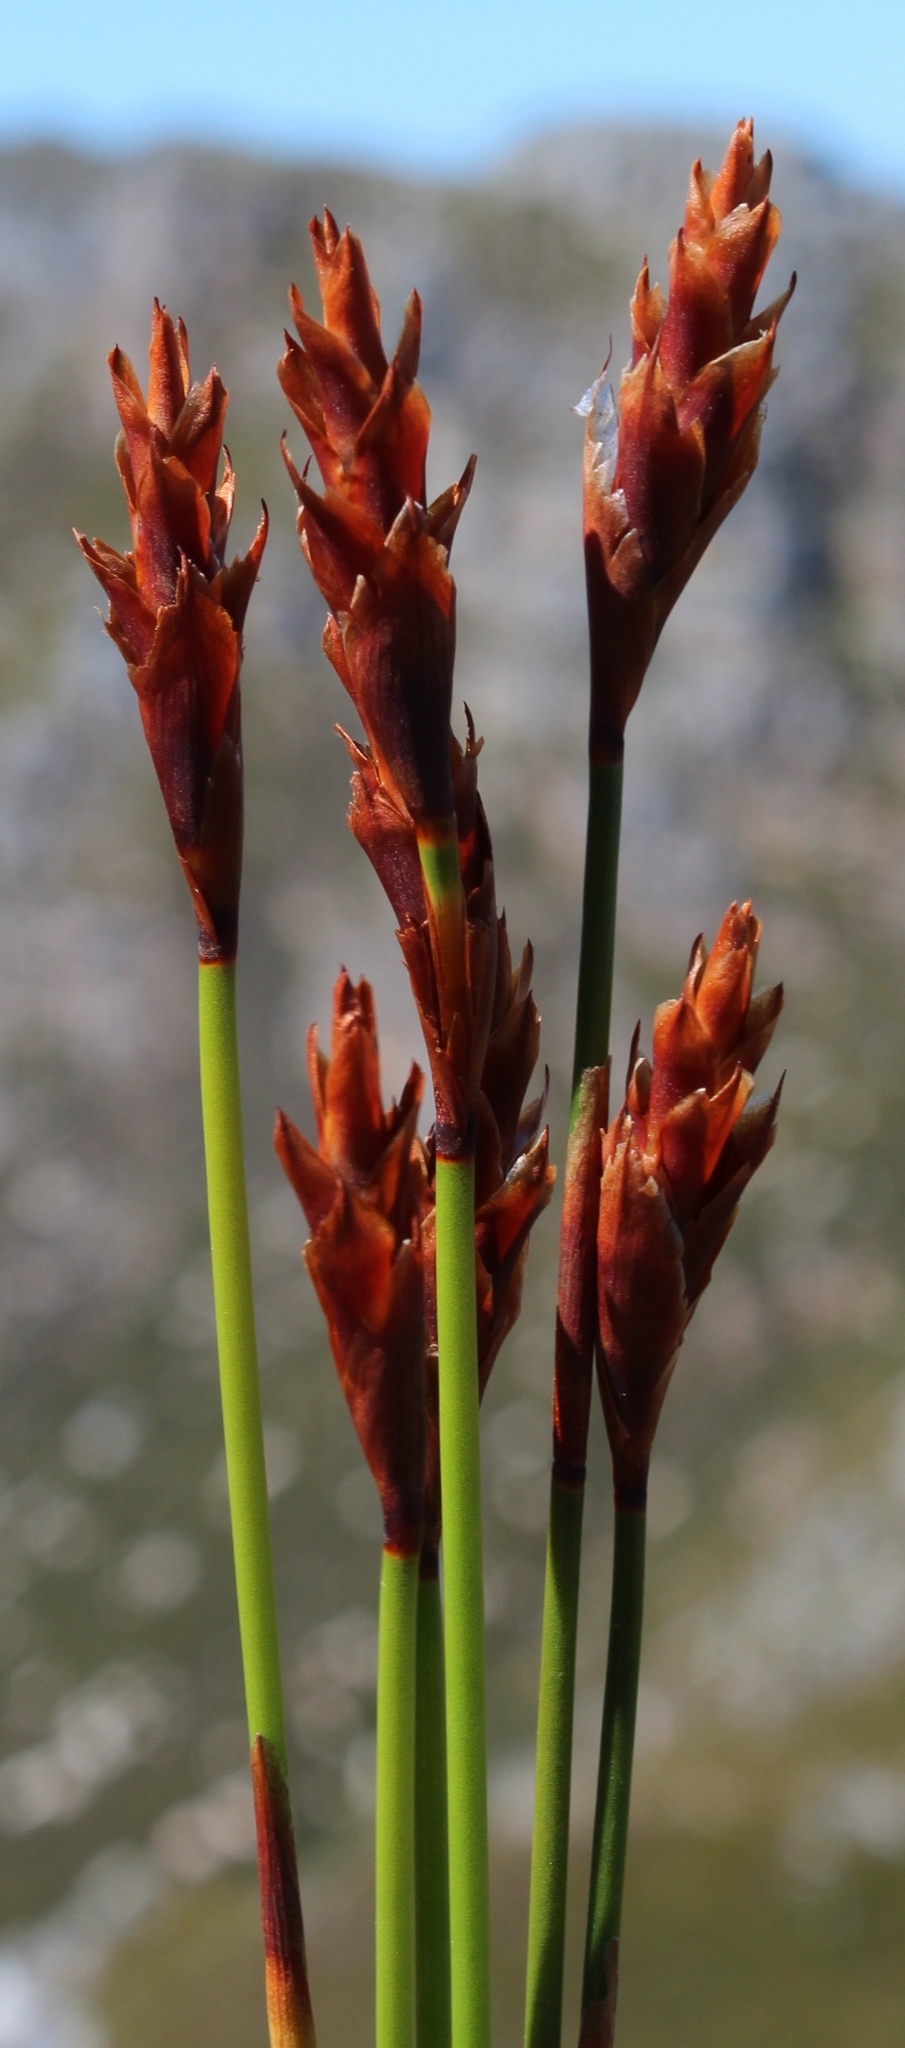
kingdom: Plantae
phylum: Tracheophyta
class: Liliopsida
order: Poales
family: Restionaceae
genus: Staberoha
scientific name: Staberoha banksii
